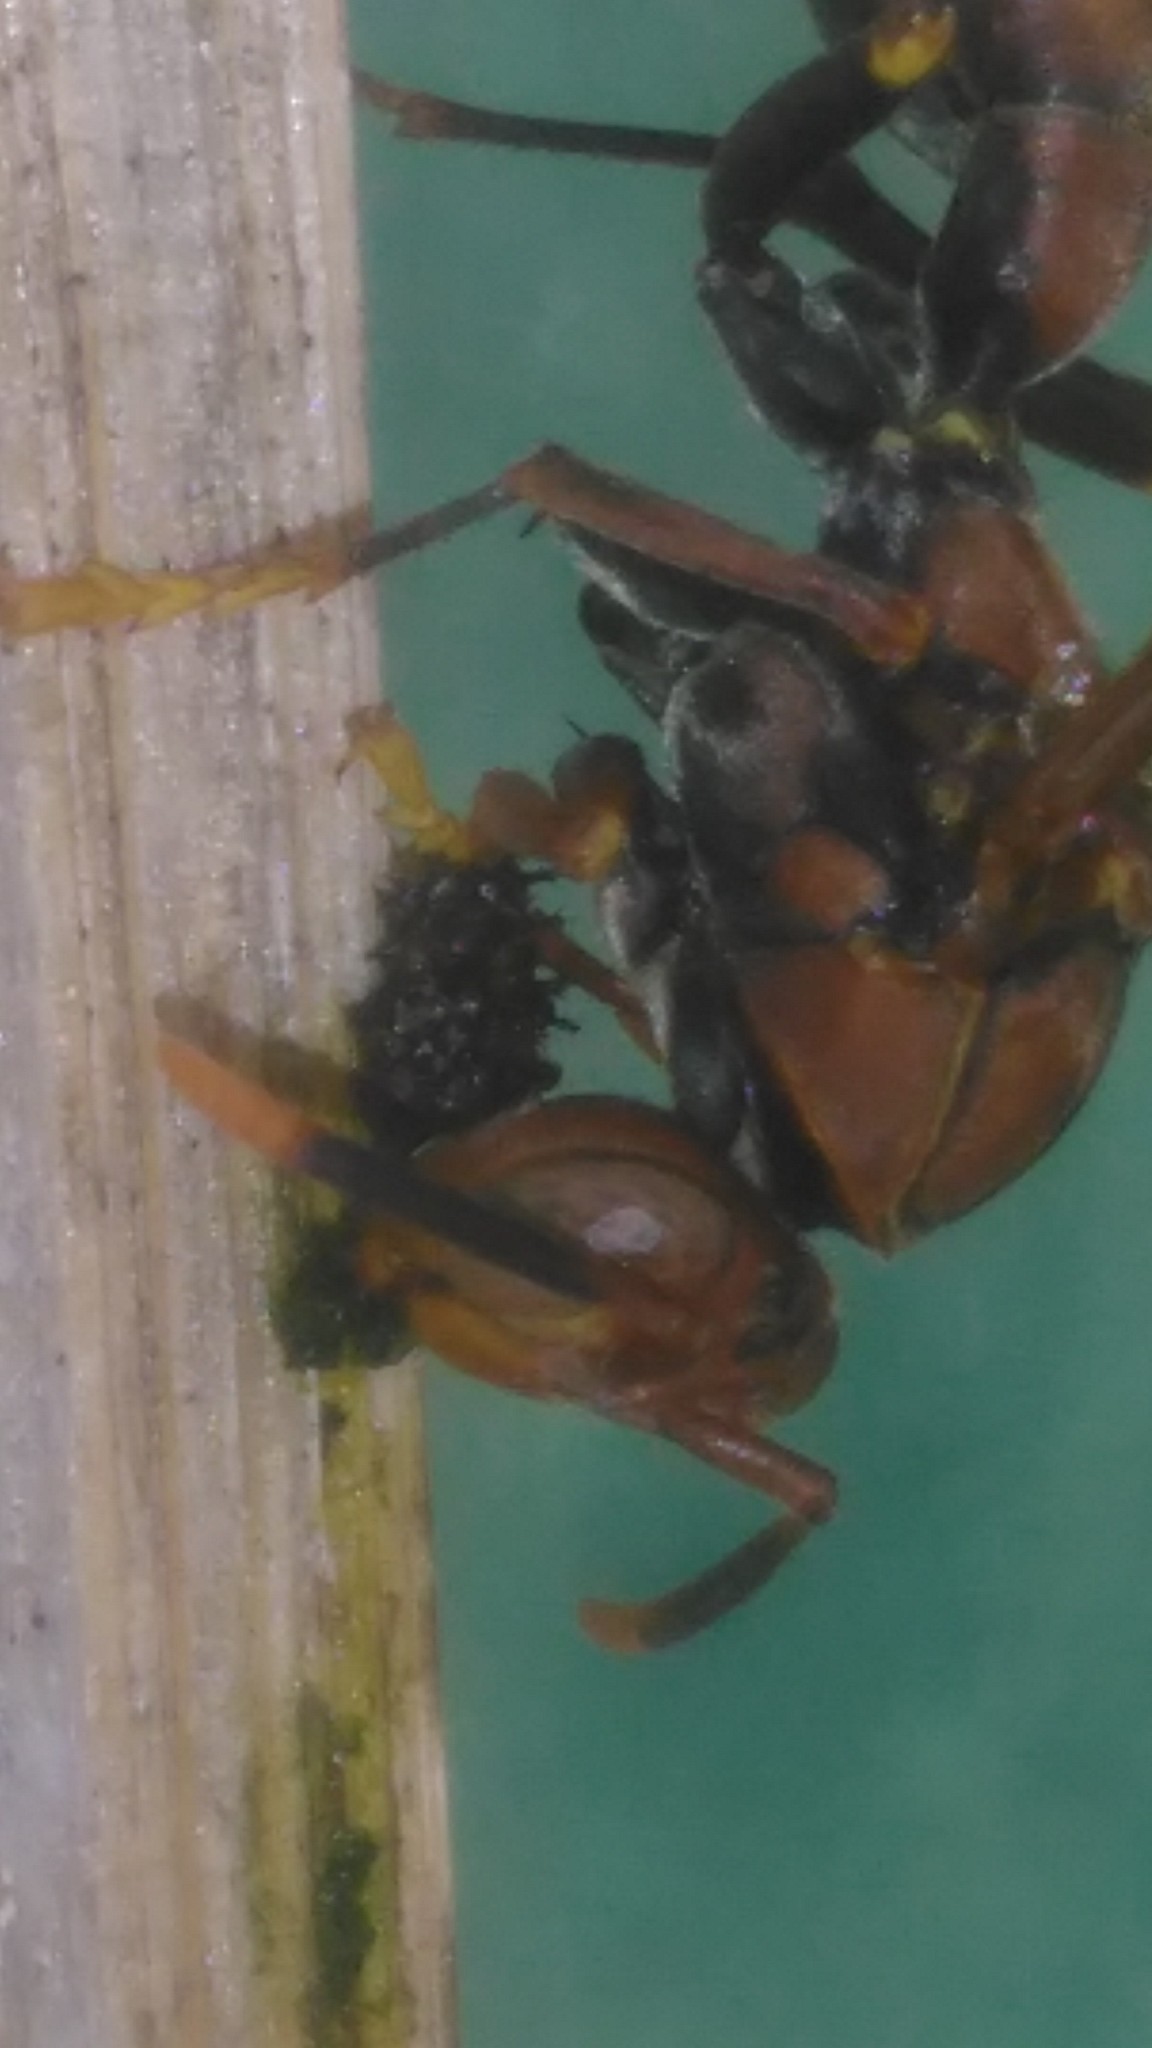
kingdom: Animalia
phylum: Arthropoda
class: Insecta
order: Hymenoptera
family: Pompilidae
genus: Aphanilopterus
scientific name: Aphanilopterus
